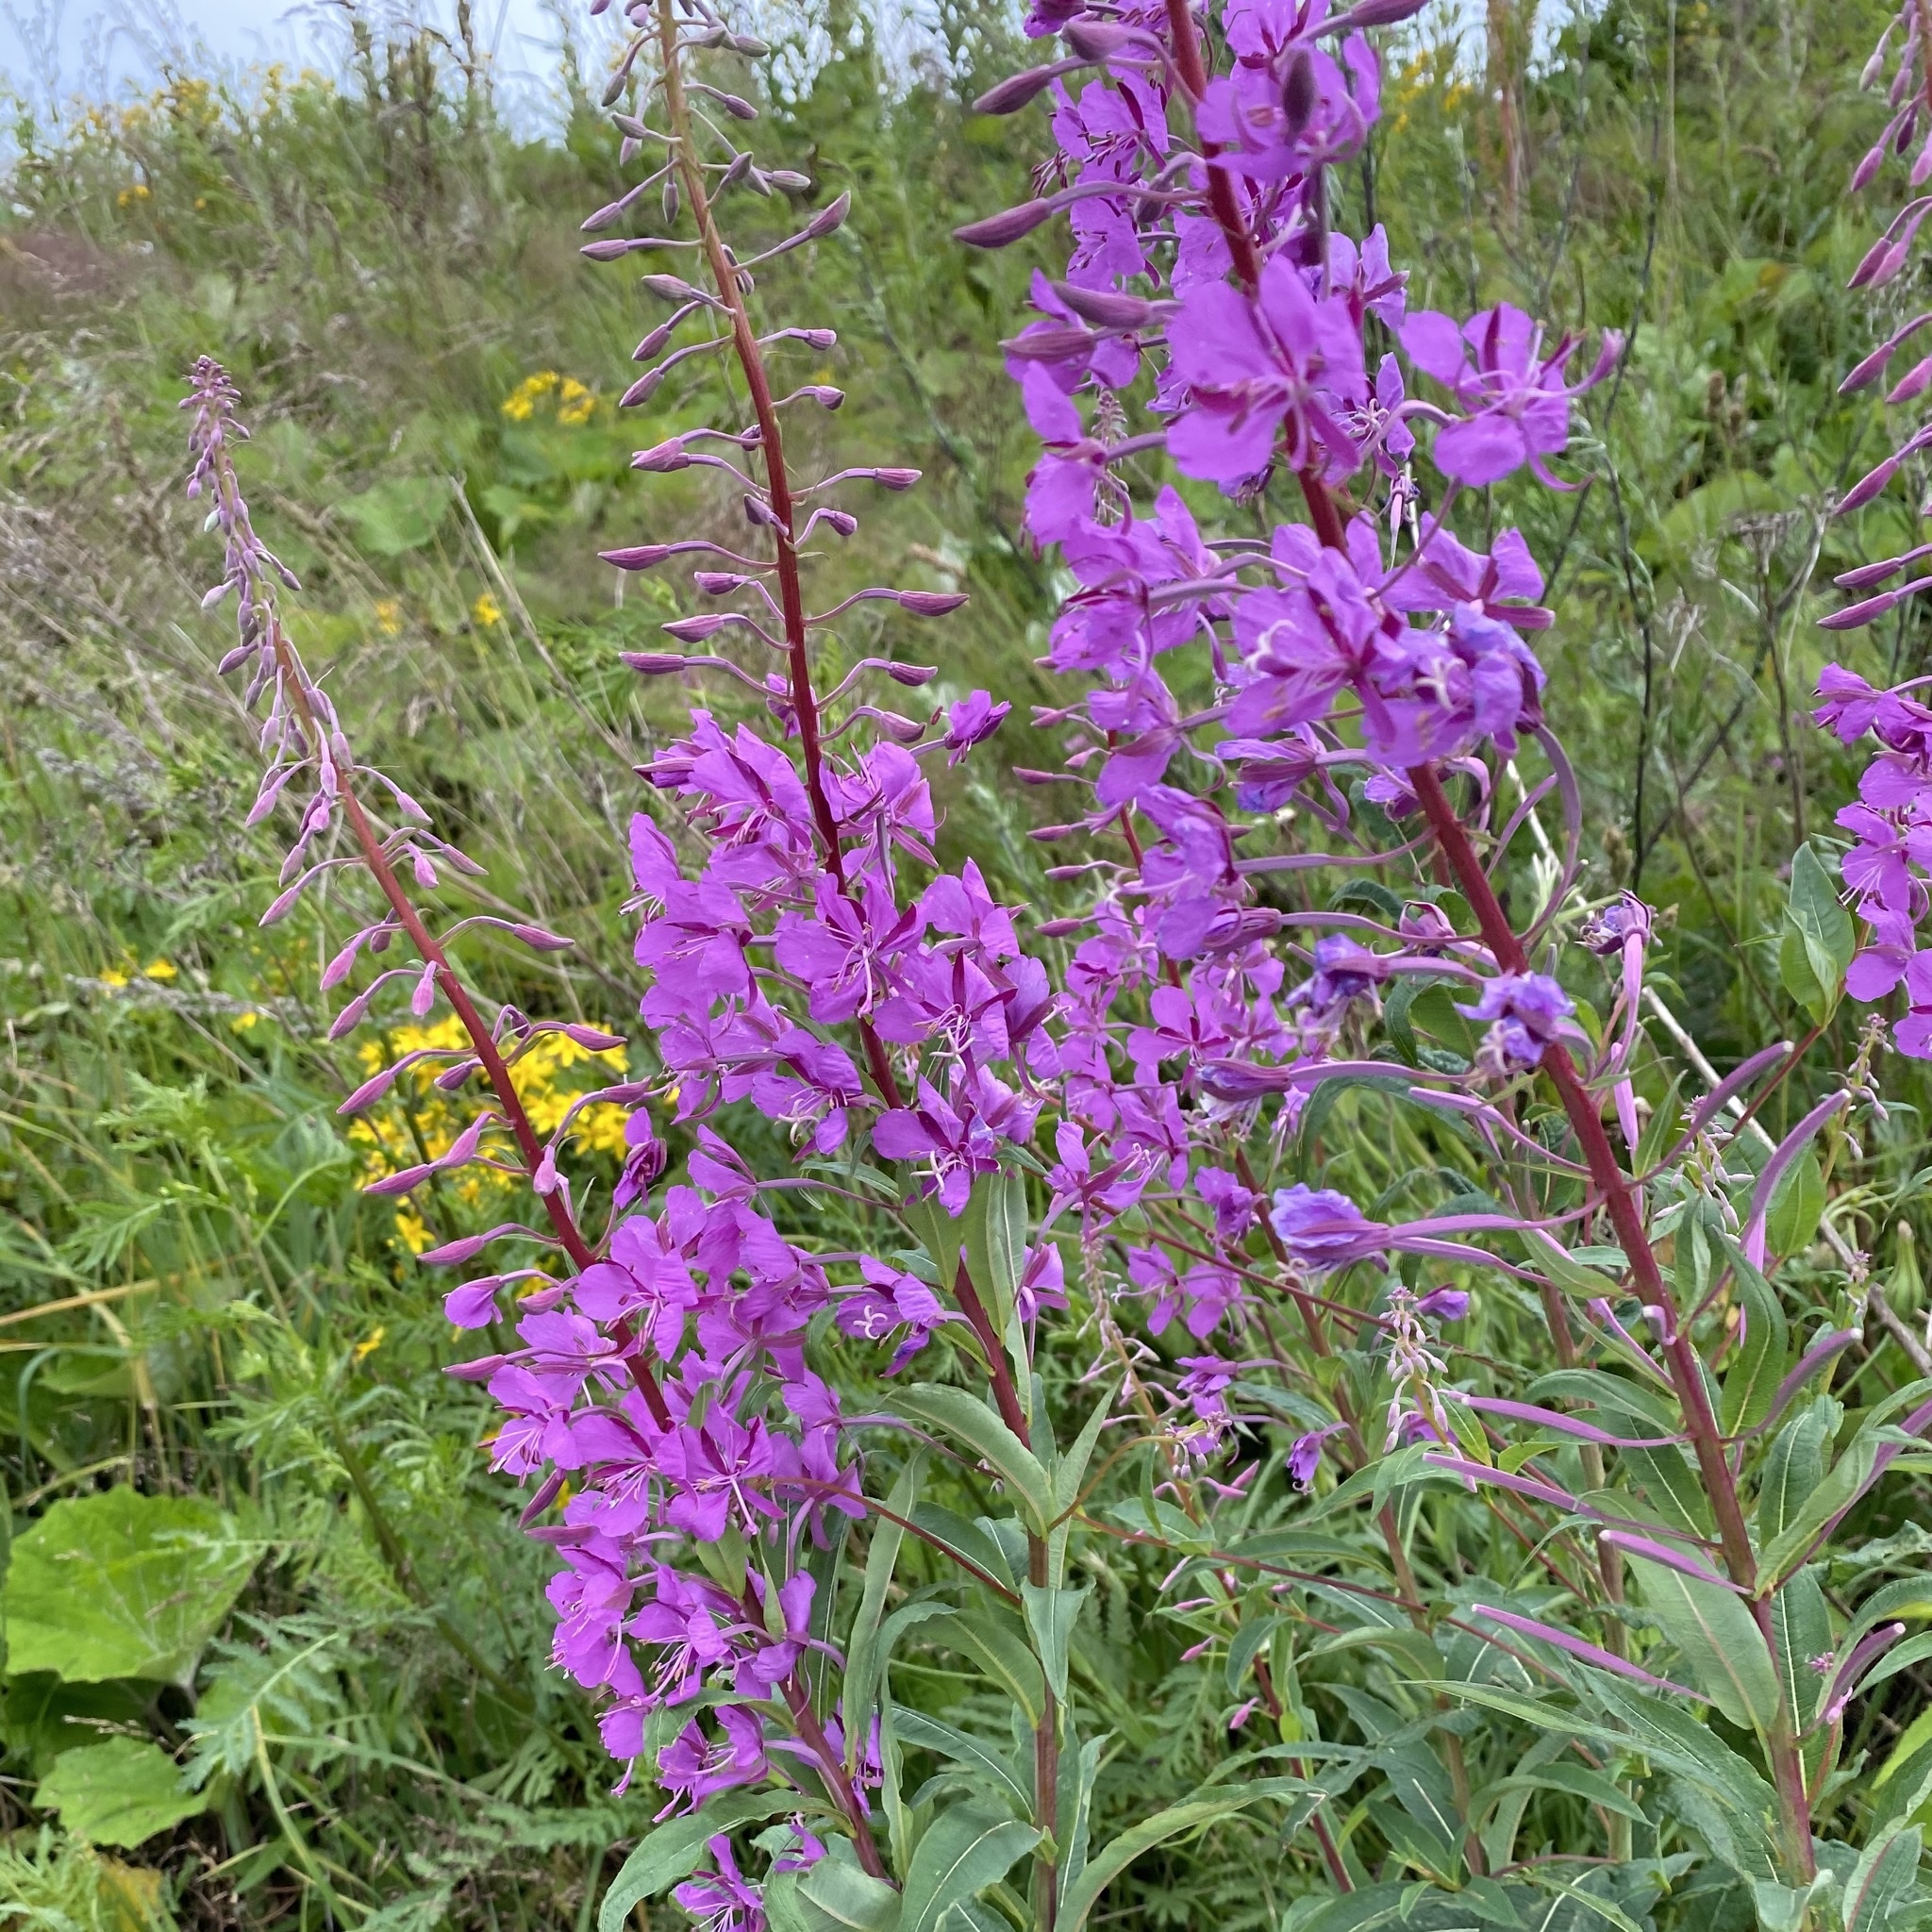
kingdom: Plantae
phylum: Tracheophyta
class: Magnoliopsida
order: Myrtales
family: Onagraceae
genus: Chamaenerion
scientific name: Chamaenerion angustifolium
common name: Fireweed
